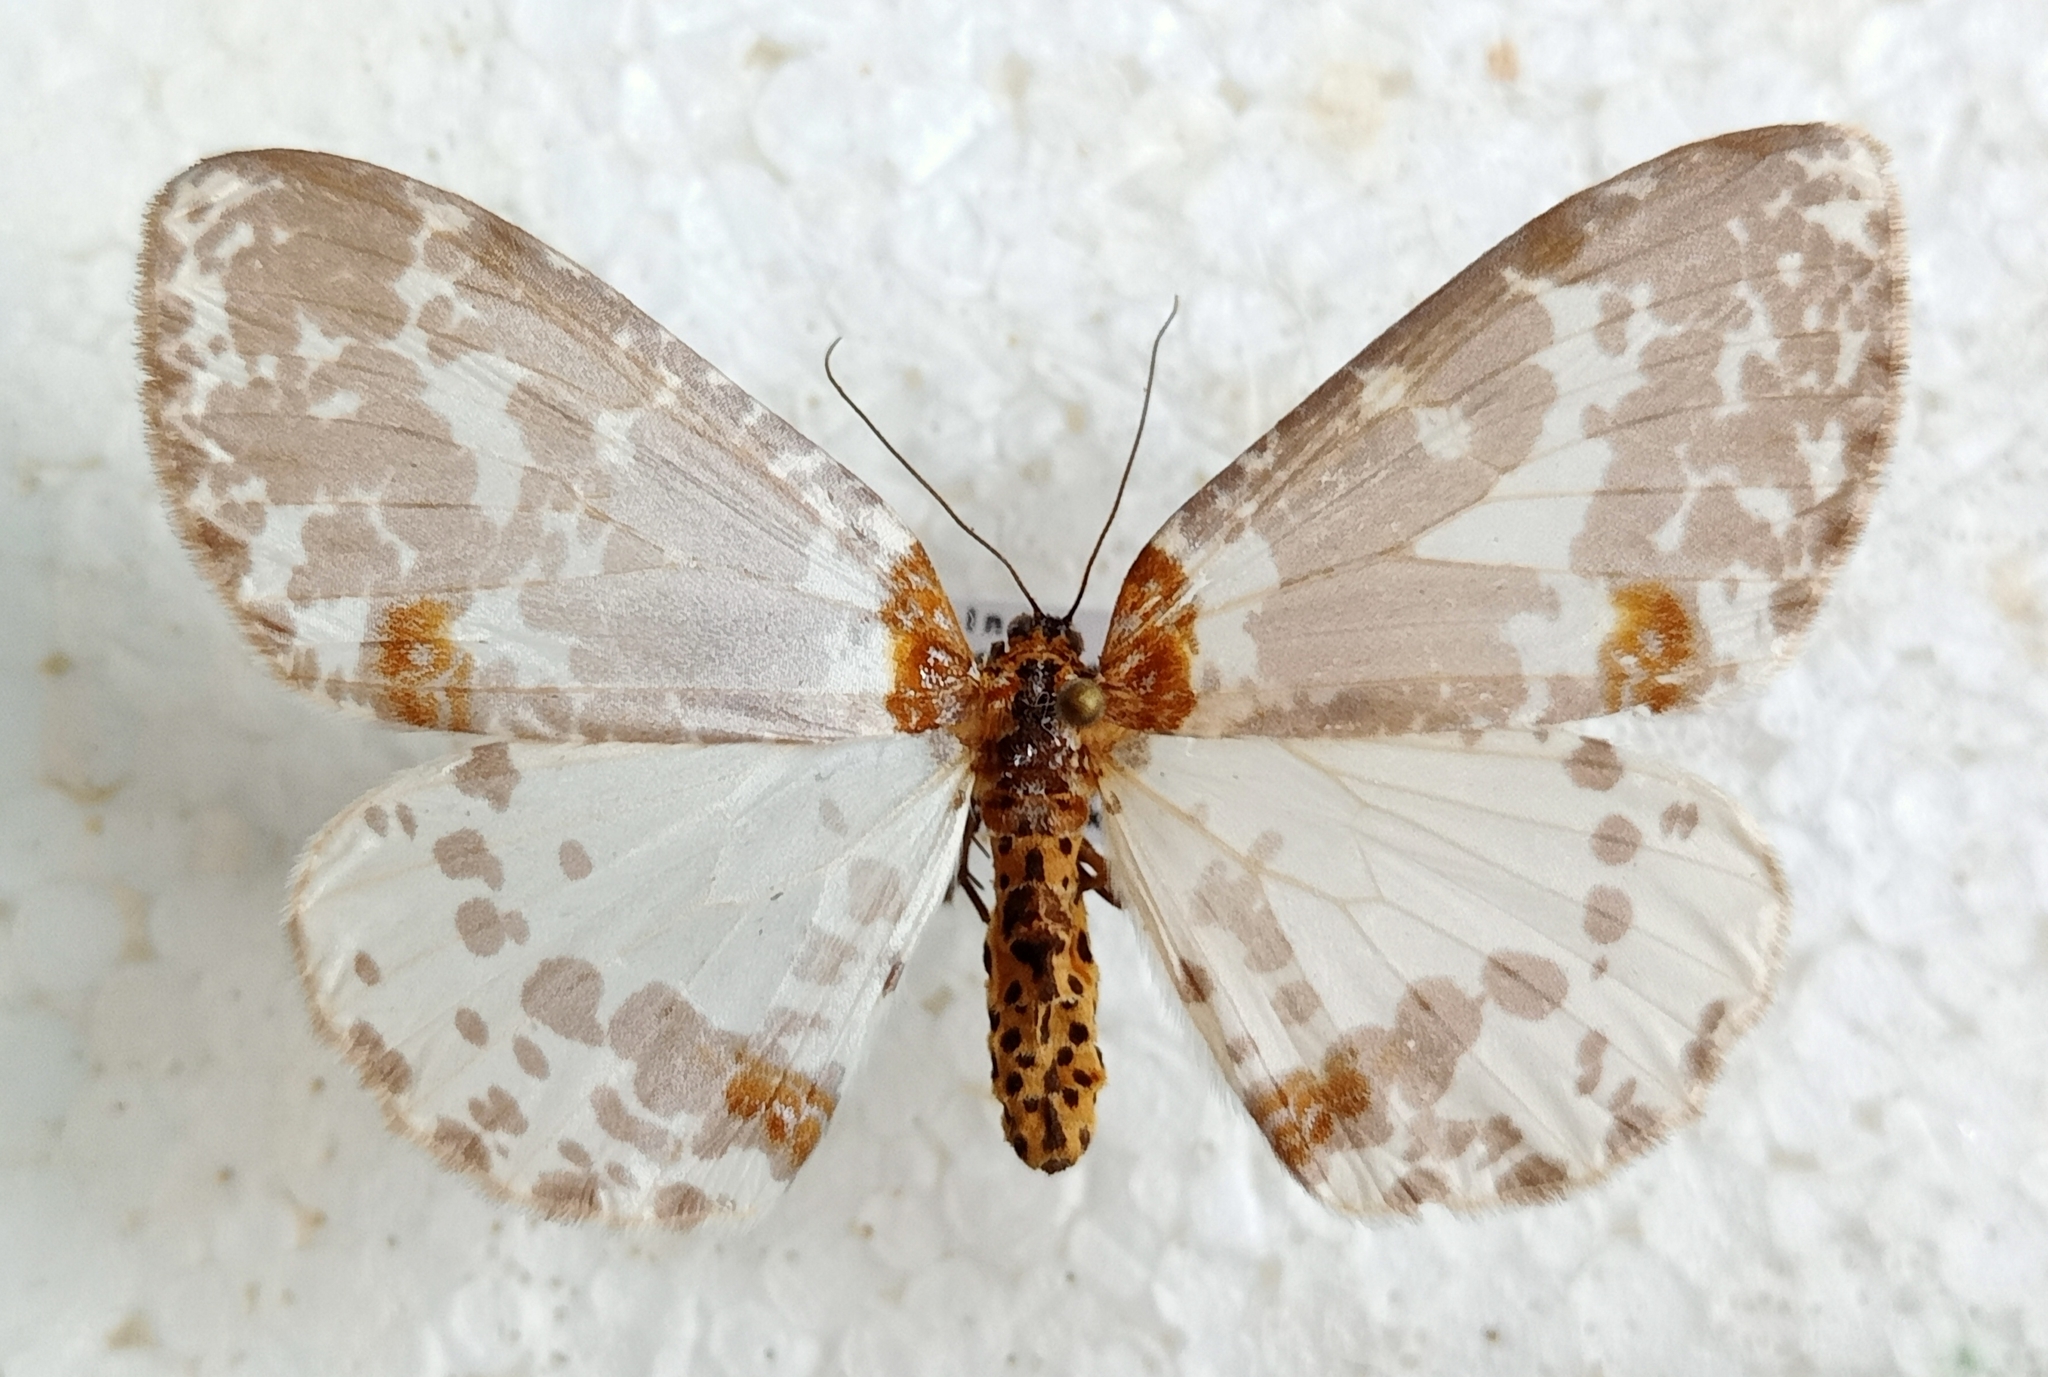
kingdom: Animalia
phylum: Arthropoda
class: Insecta
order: Lepidoptera
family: Geometridae
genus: Abraxas
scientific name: Abraxas martaria
